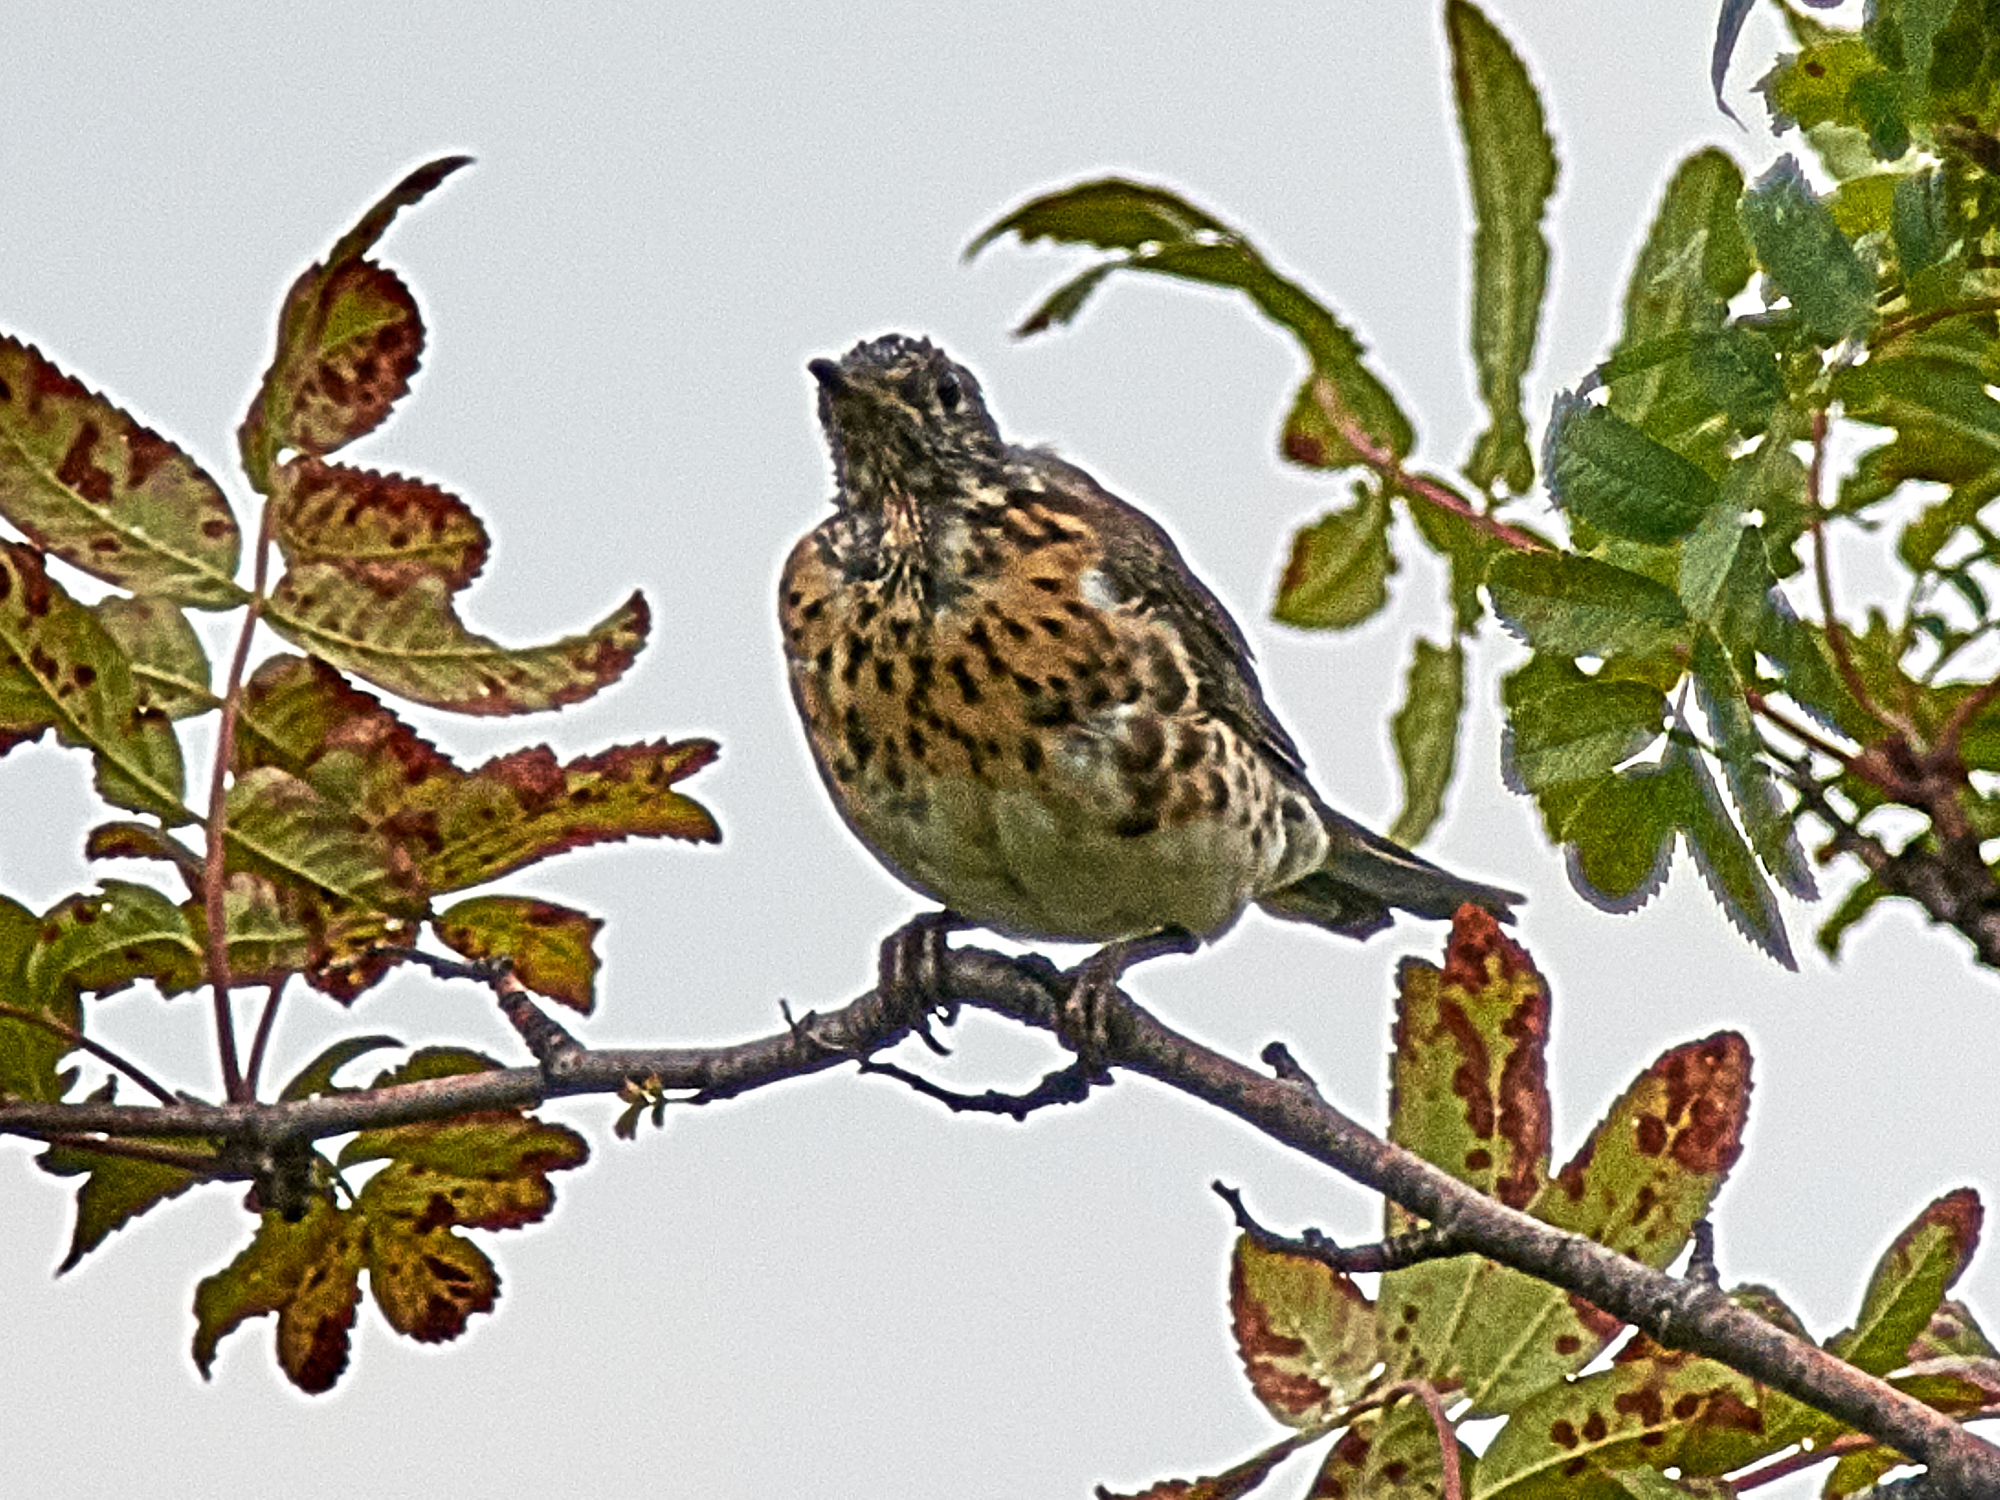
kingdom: Animalia
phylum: Chordata
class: Aves
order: Passeriformes
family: Turdidae
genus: Turdus
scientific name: Turdus pilaris
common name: Fieldfare
